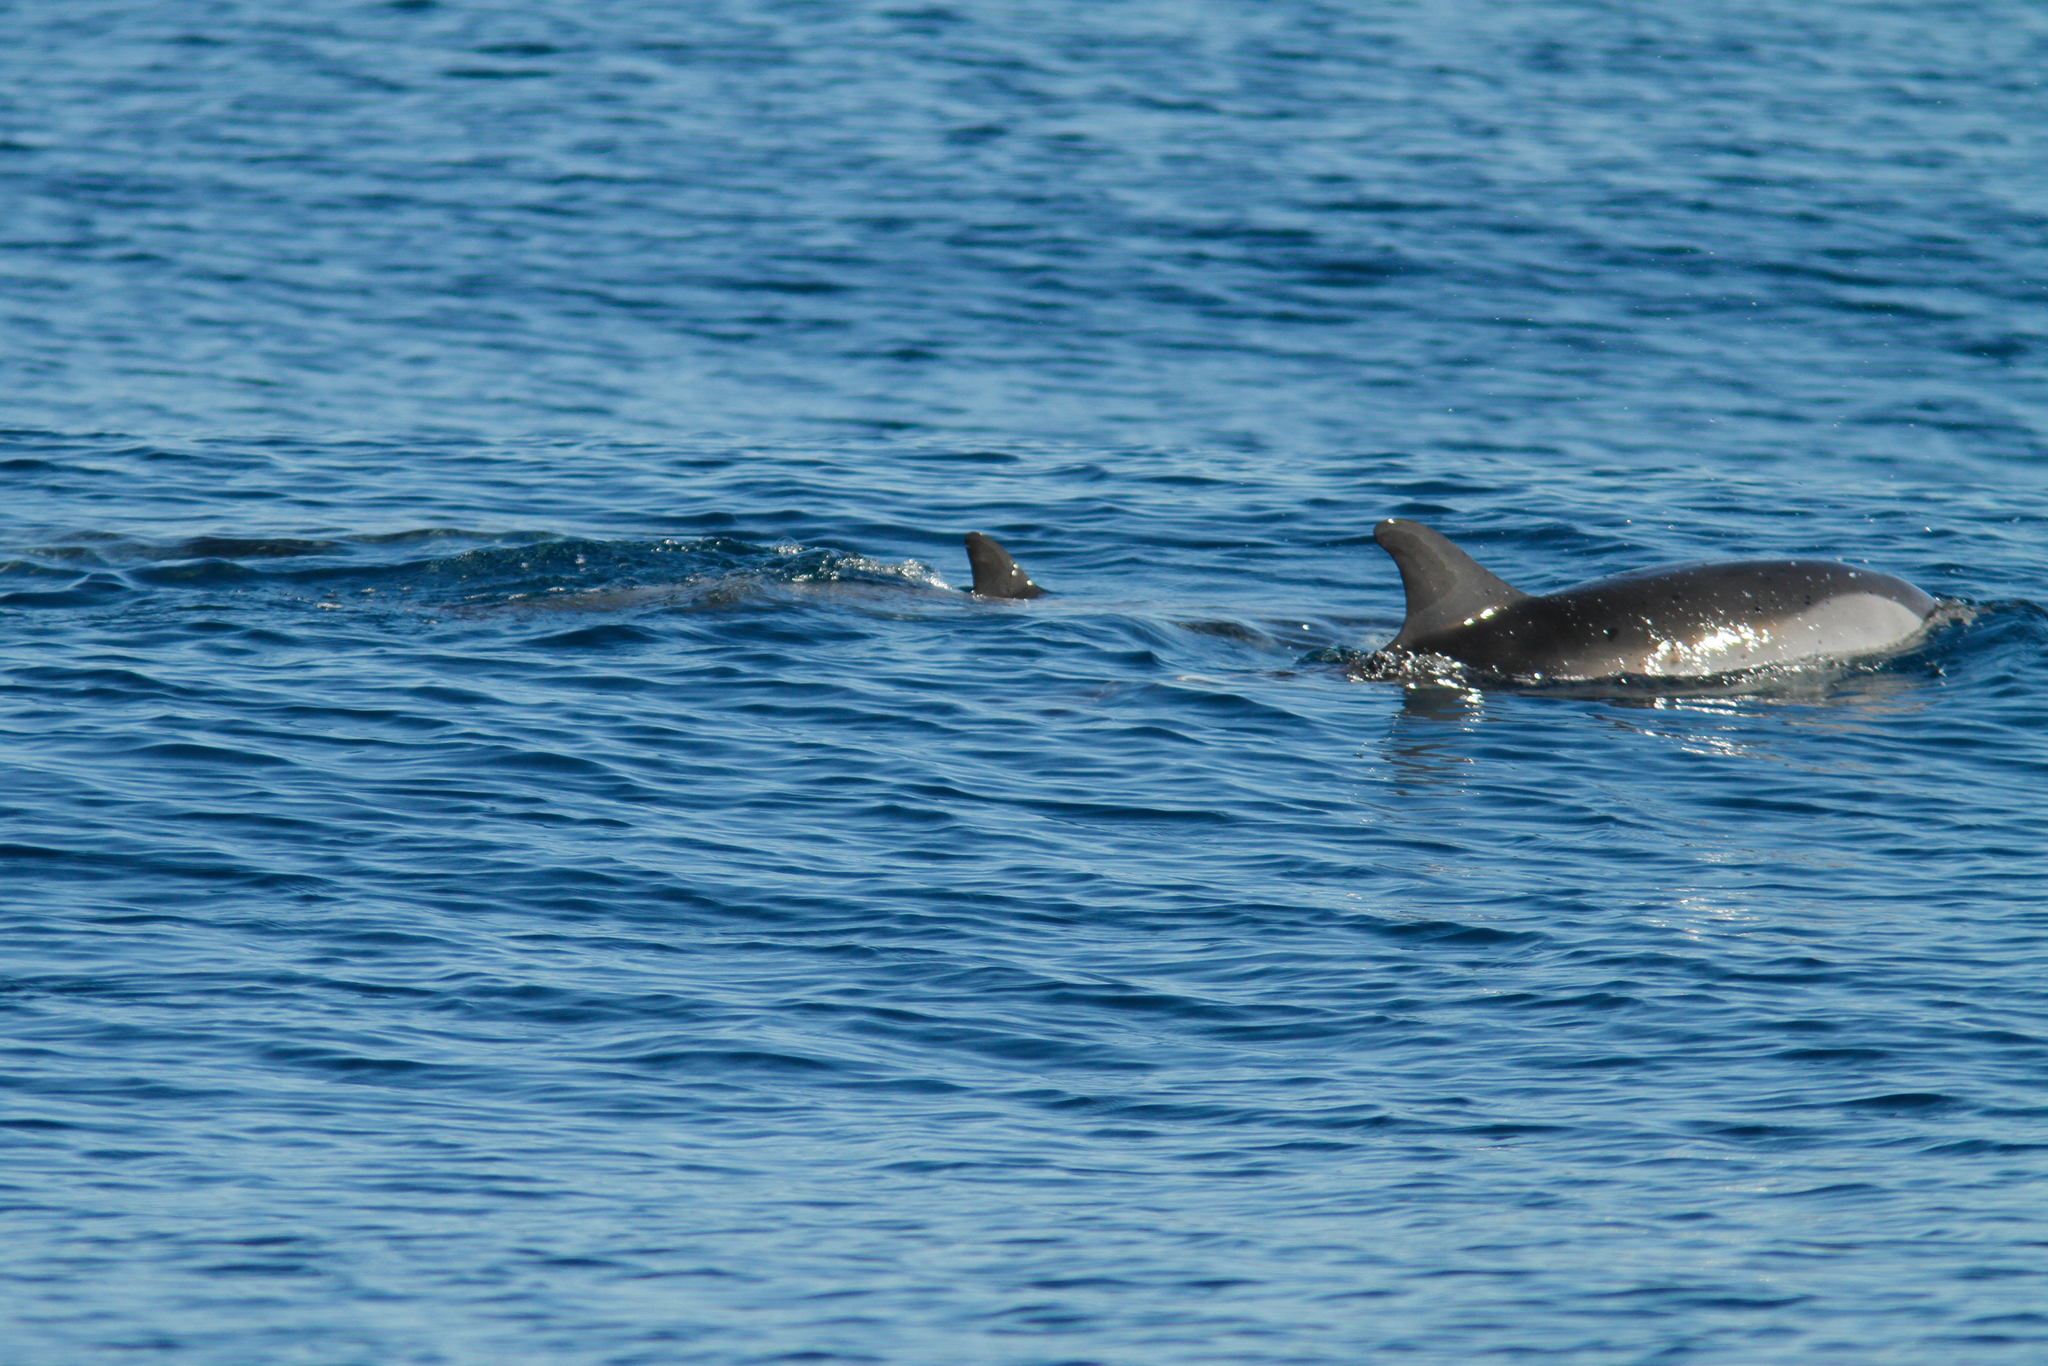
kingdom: Animalia
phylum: Chordata
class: Mammalia
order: Cetacea
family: Delphinidae
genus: Stenella
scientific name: Stenella coeruleoalba
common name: Striped dolphin
